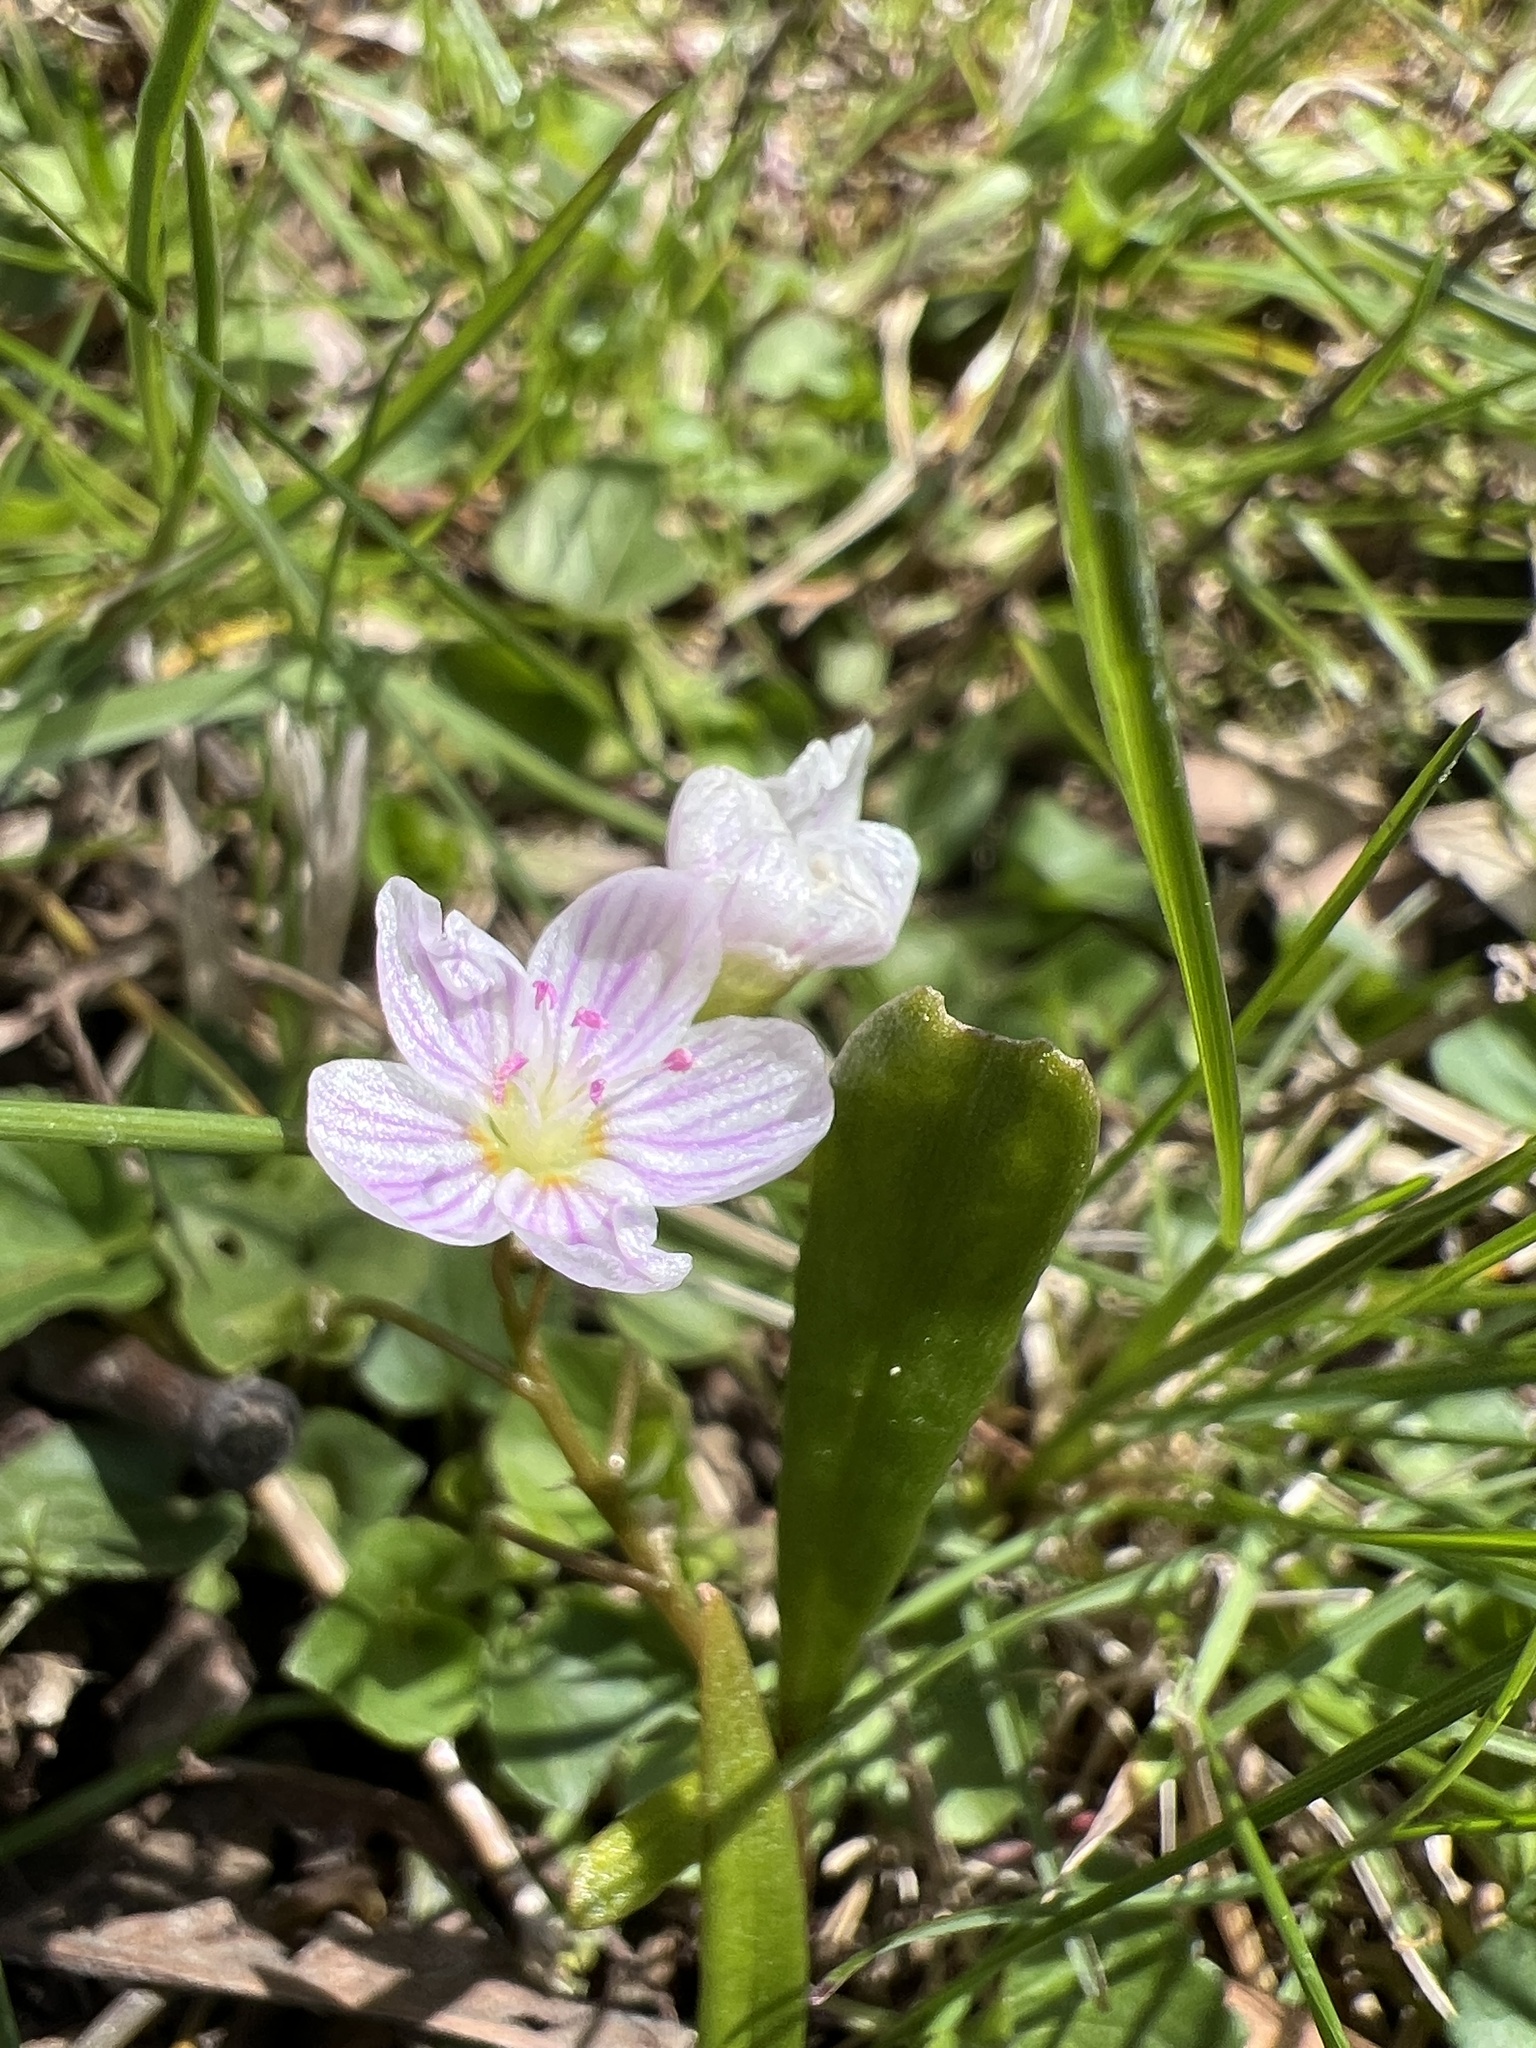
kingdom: Plantae
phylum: Tracheophyta
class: Magnoliopsida
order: Caryophyllales
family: Montiaceae
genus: Claytonia
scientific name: Claytonia virginica
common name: Virginia springbeauty
